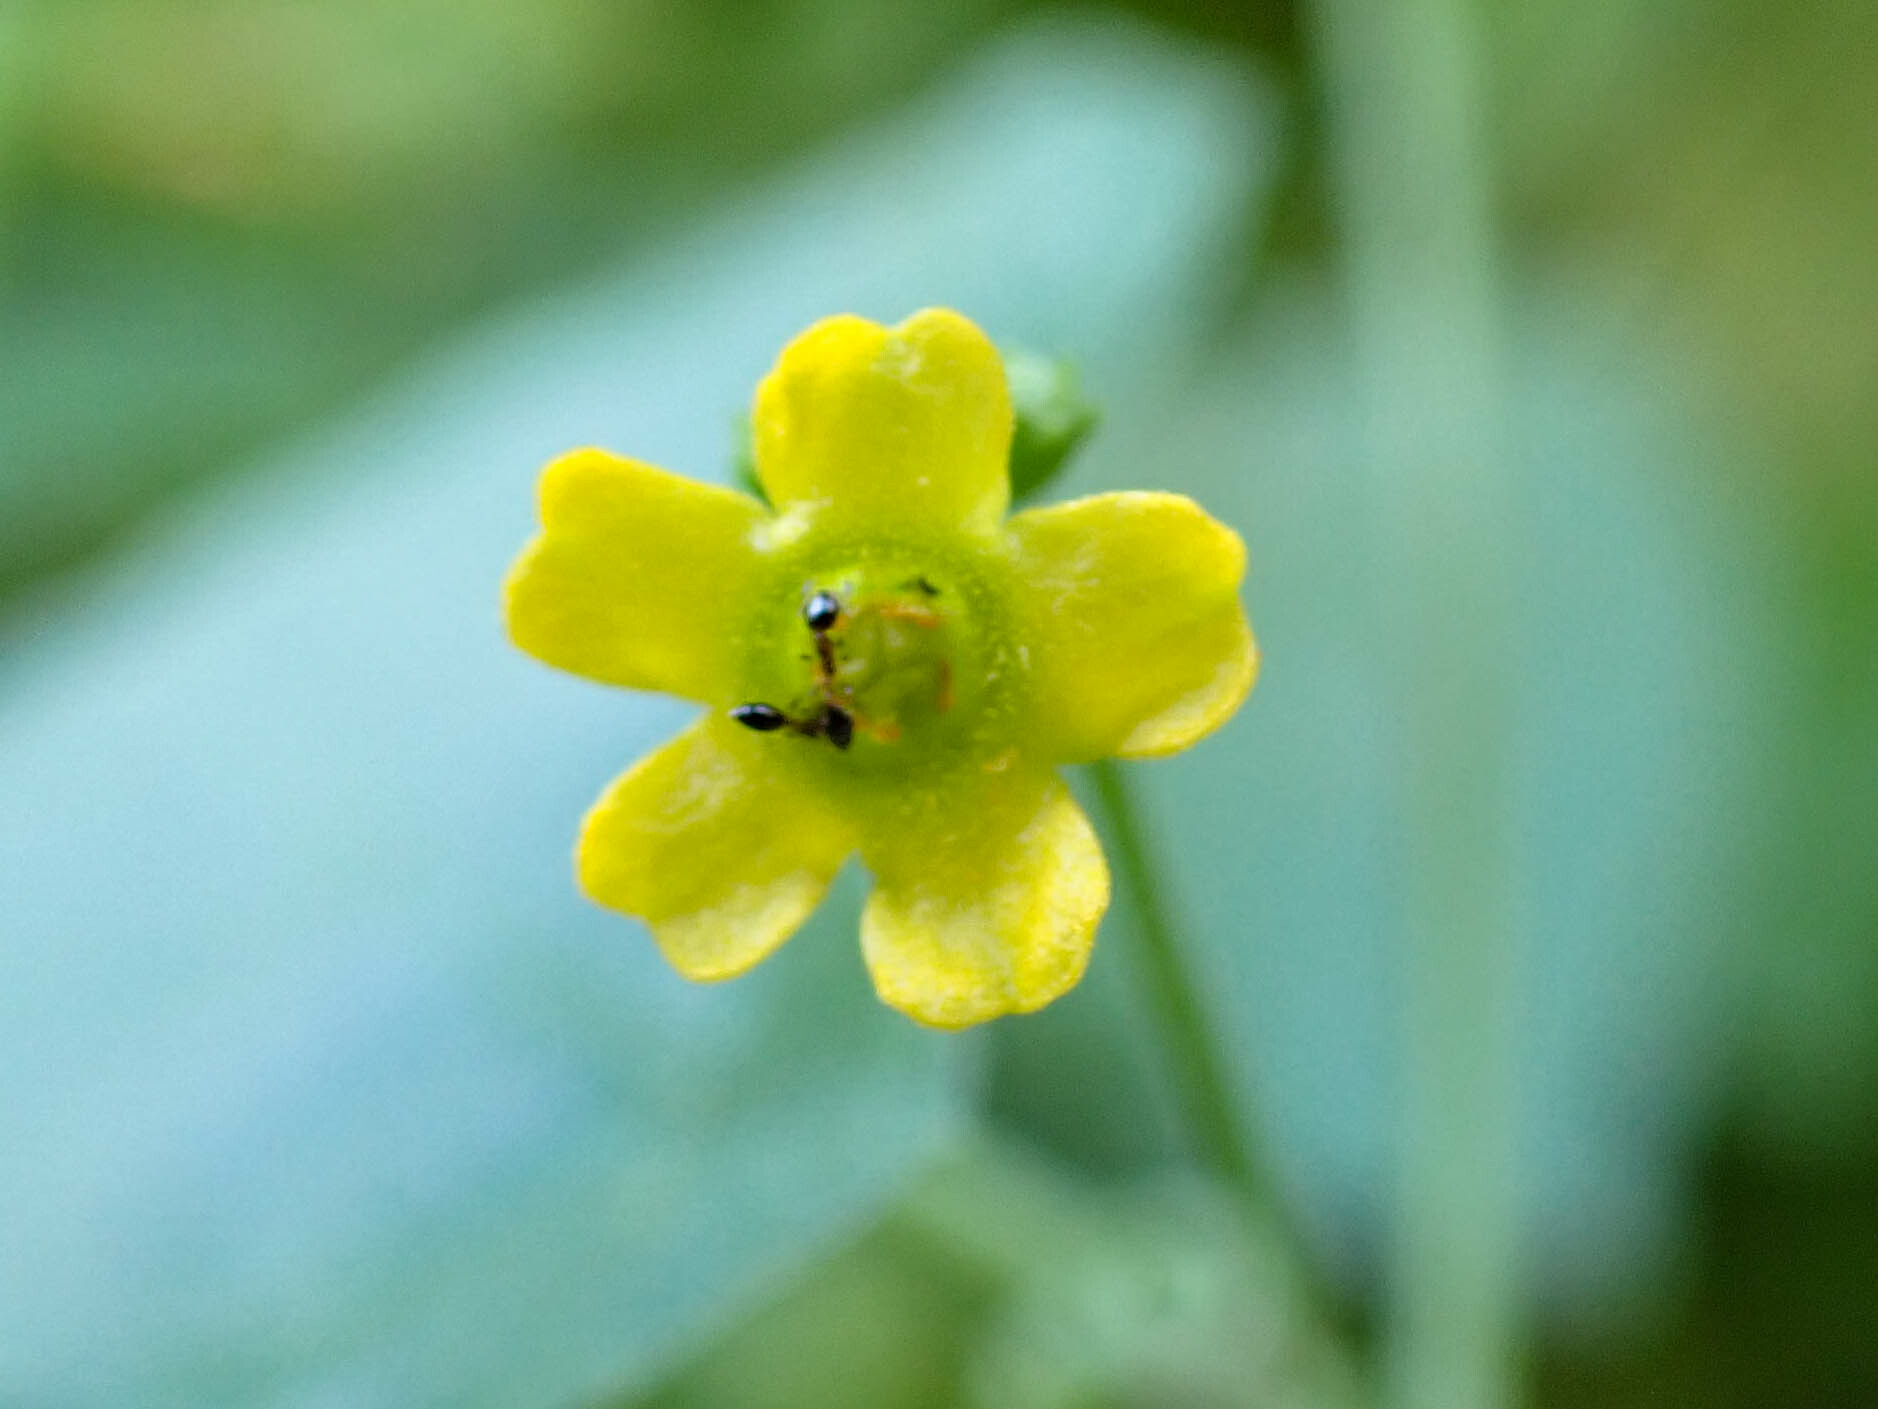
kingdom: Plantae
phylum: Tracheophyta
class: Magnoliopsida
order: Cucurbitales
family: Cucurbitaceae
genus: Melothria
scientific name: Melothria pendula
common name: Creeping-cucumber
